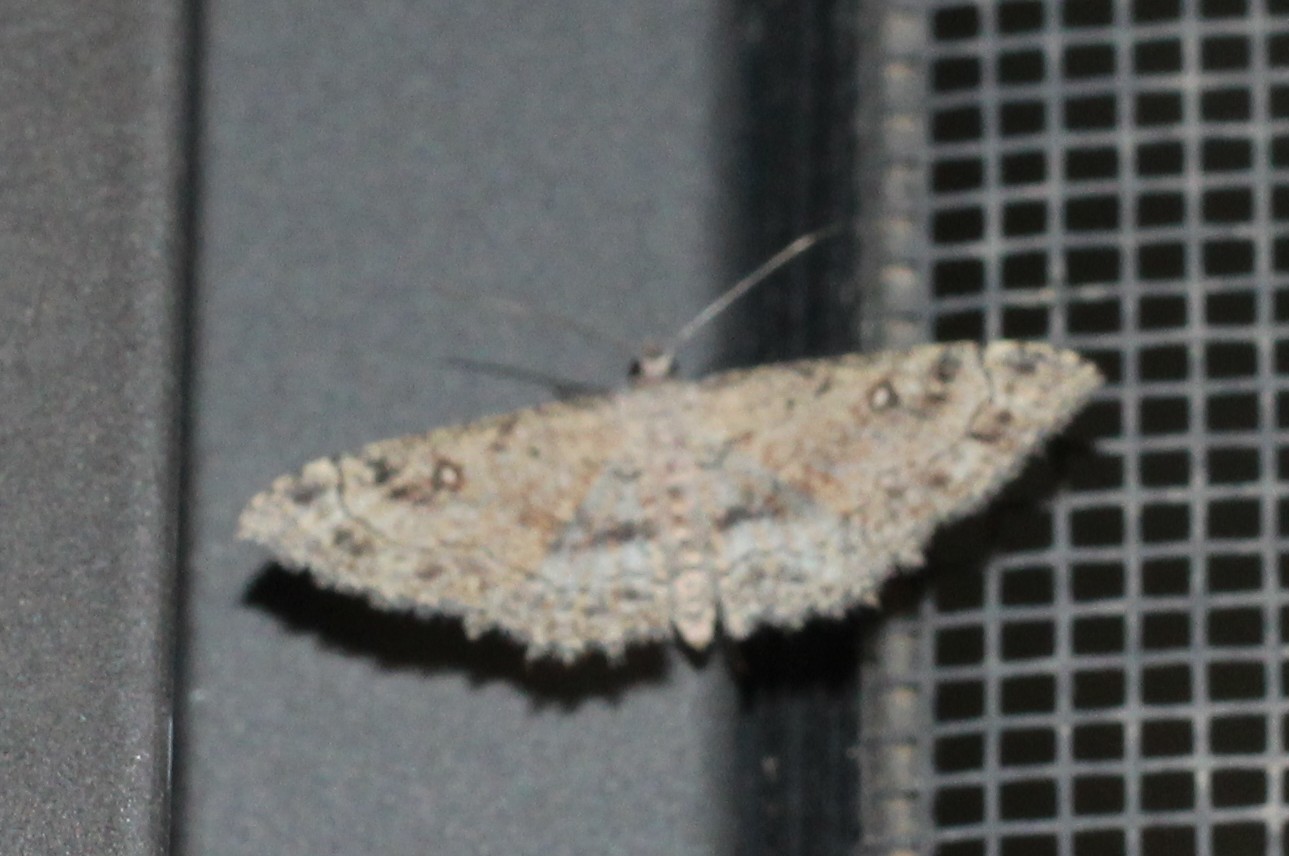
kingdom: Animalia
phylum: Arthropoda
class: Insecta
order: Lepidoptera
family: Geometridae
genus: Cyclophora
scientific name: Cyclophora nanaria
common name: Cankerworm
